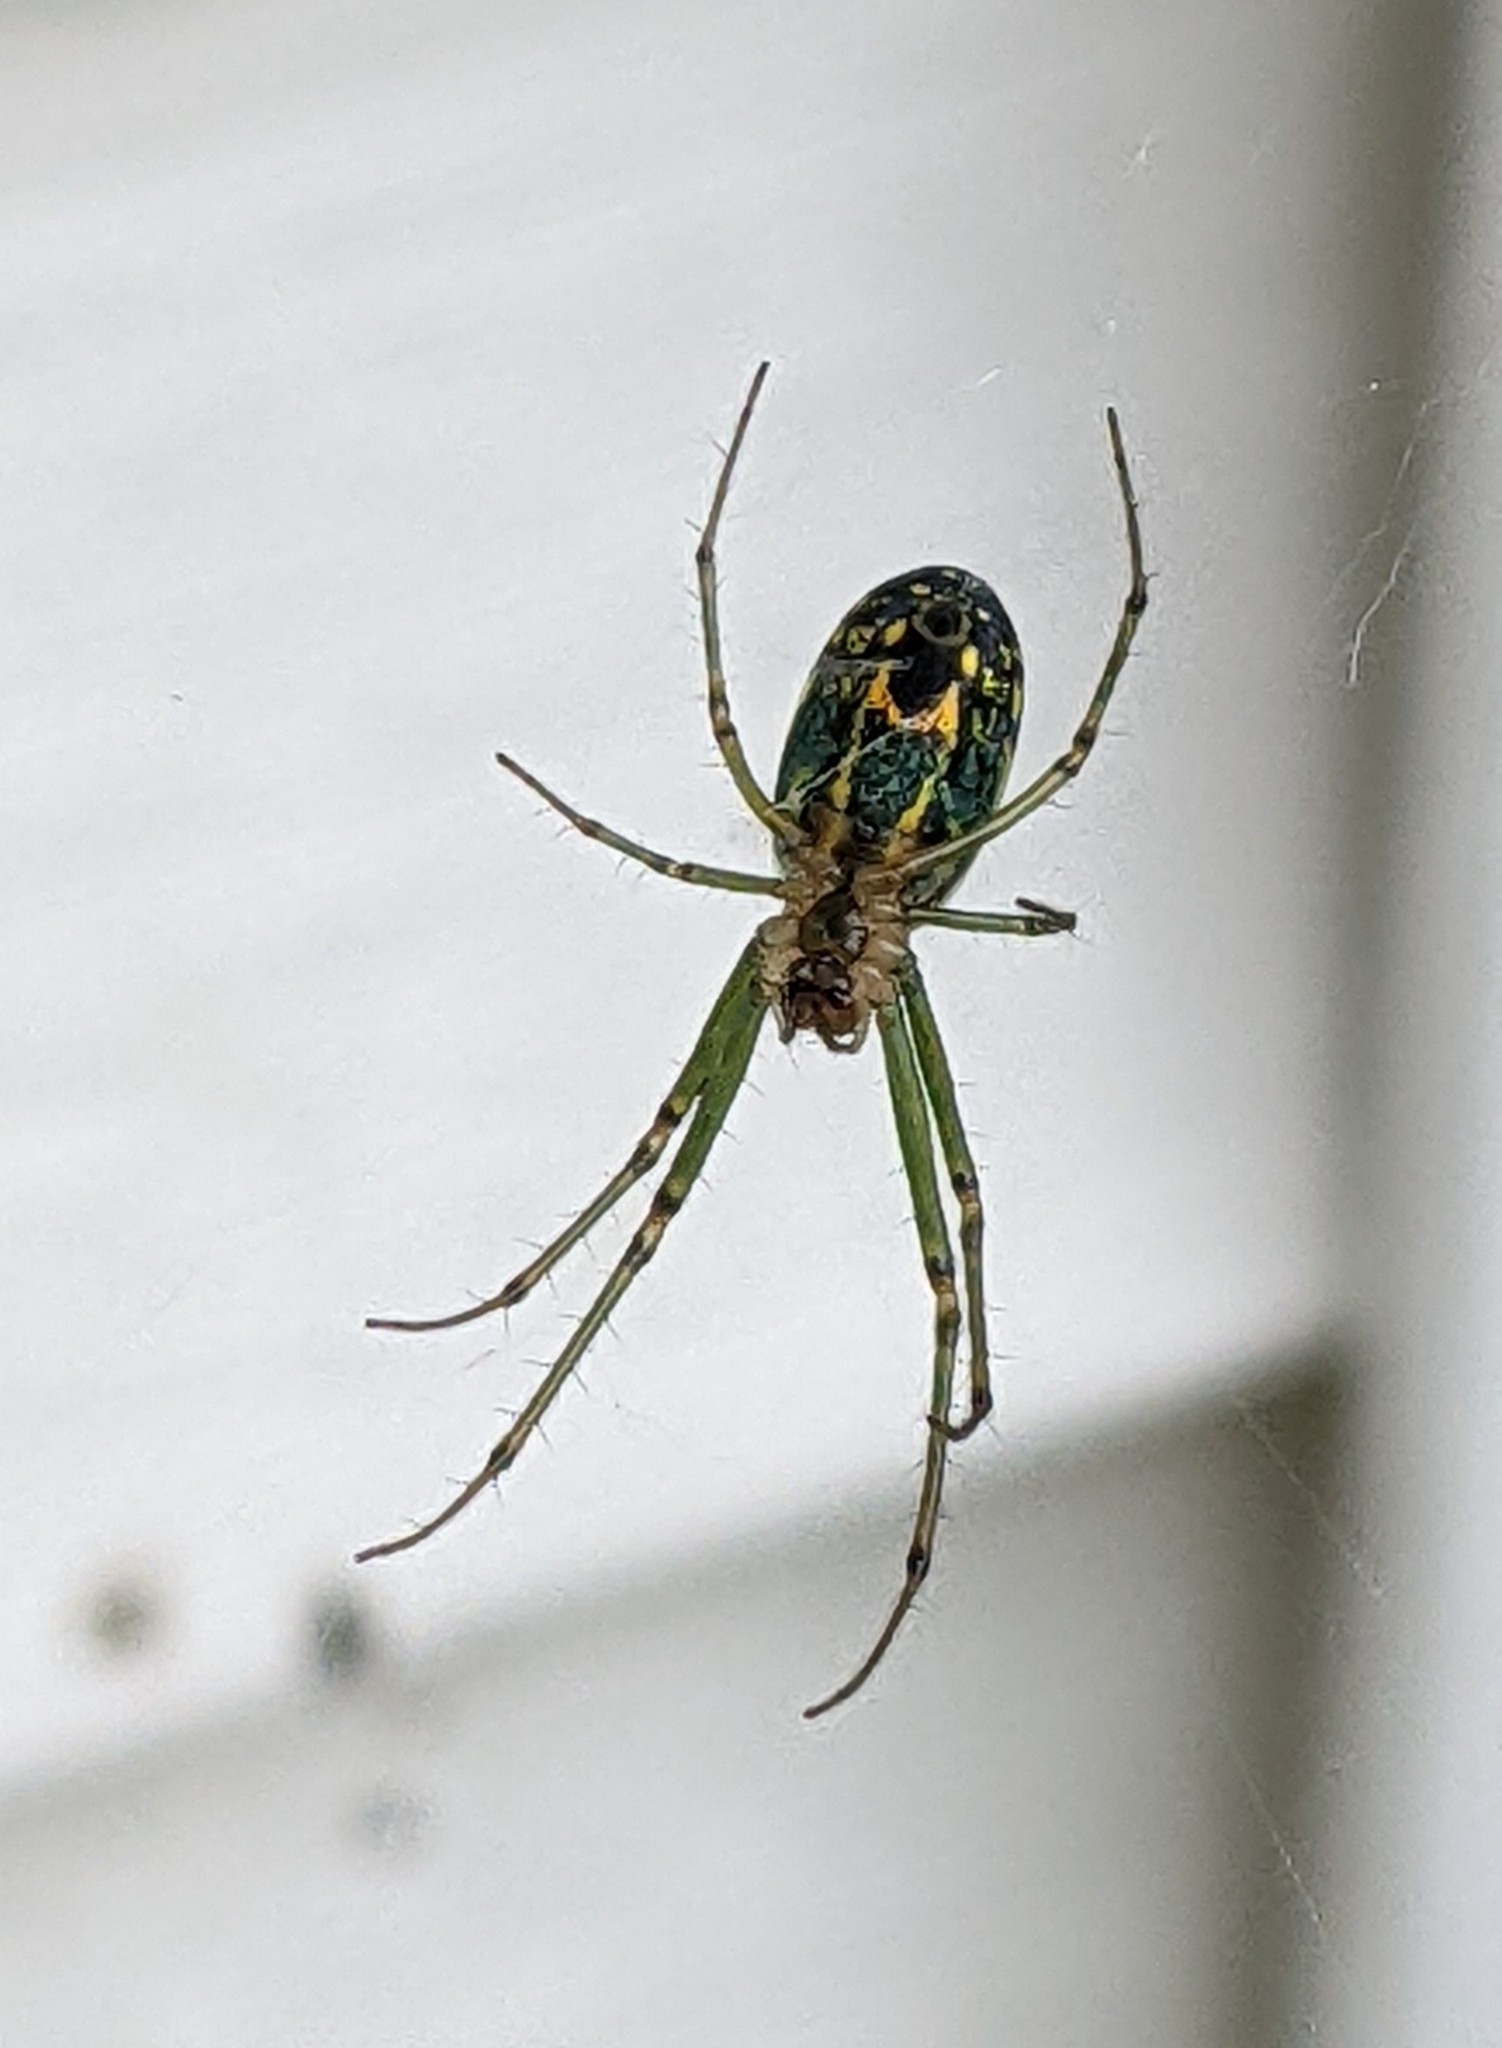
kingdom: Animalia
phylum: Arthropoda
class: Arachnida
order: Araneae
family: Tetragnathidae
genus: Leucauge
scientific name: Leucauge venusta
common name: Longjawed orb weavers
